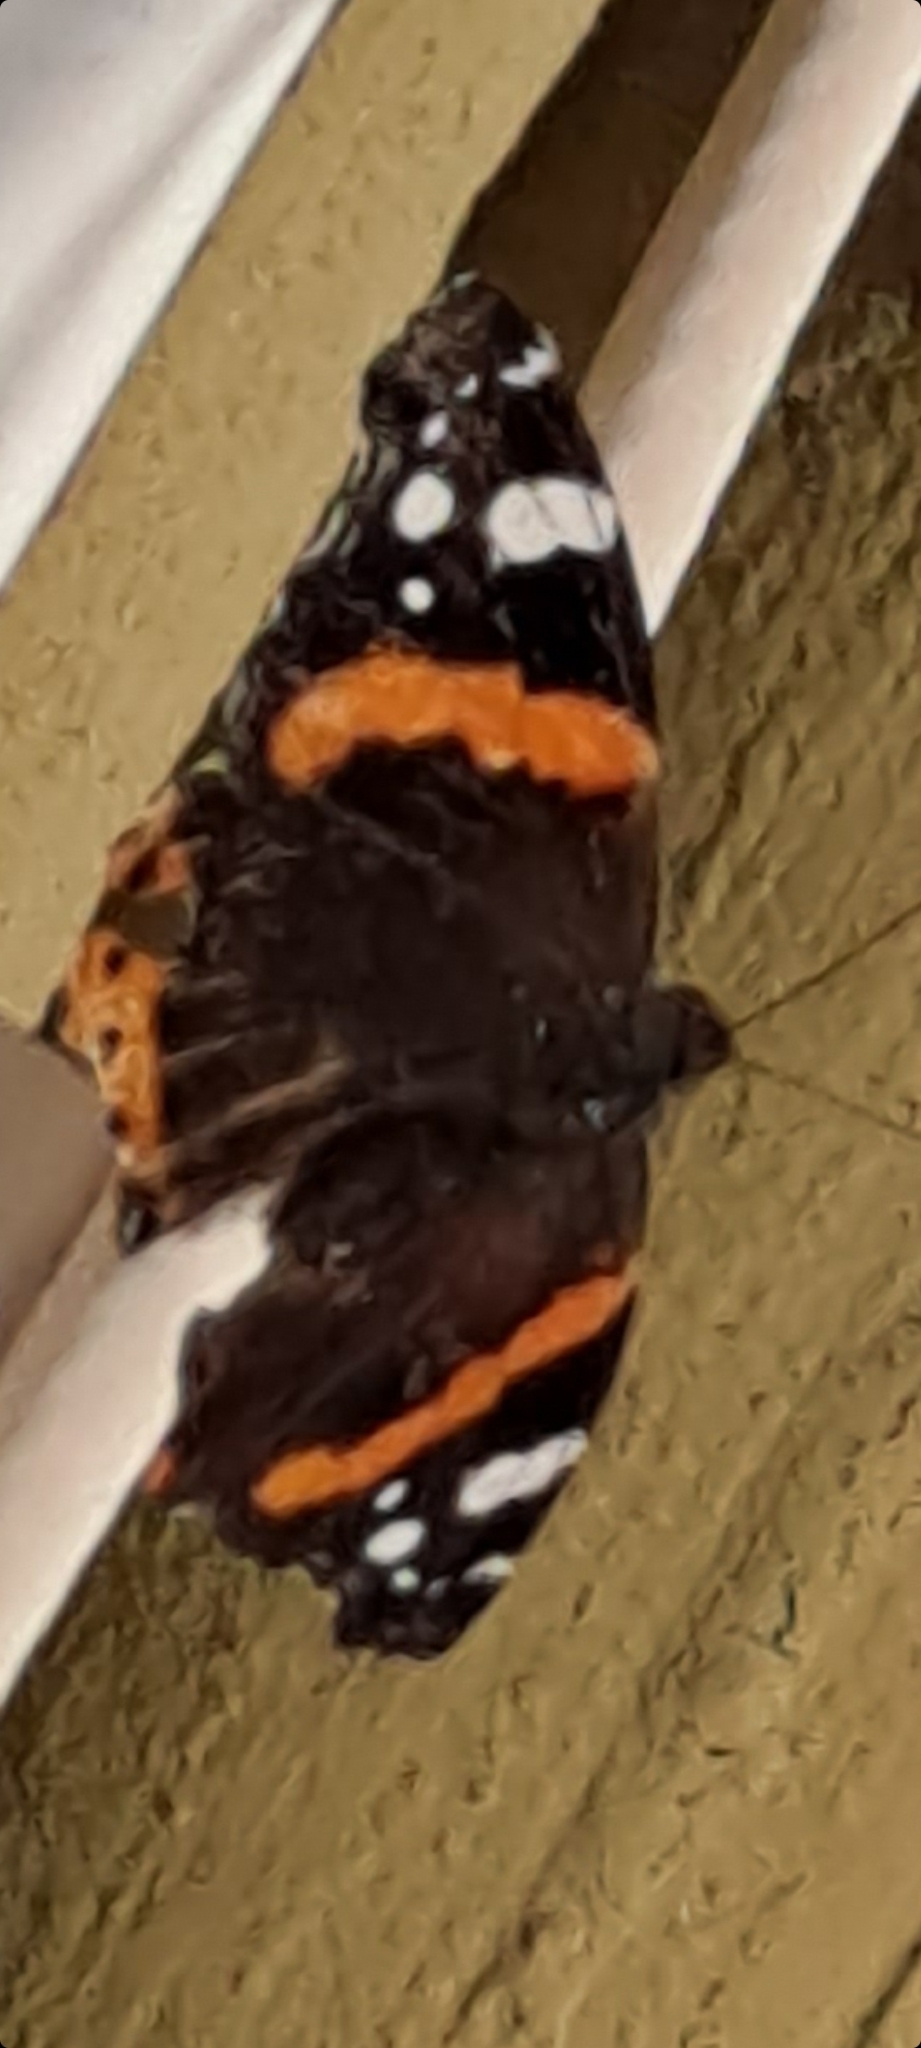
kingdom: Animalia
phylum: Arthropoda
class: Insecta
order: Lepidoptera
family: Nymphalidae
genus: Vanessa
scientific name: Vanessa atalanta
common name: Red admiral
